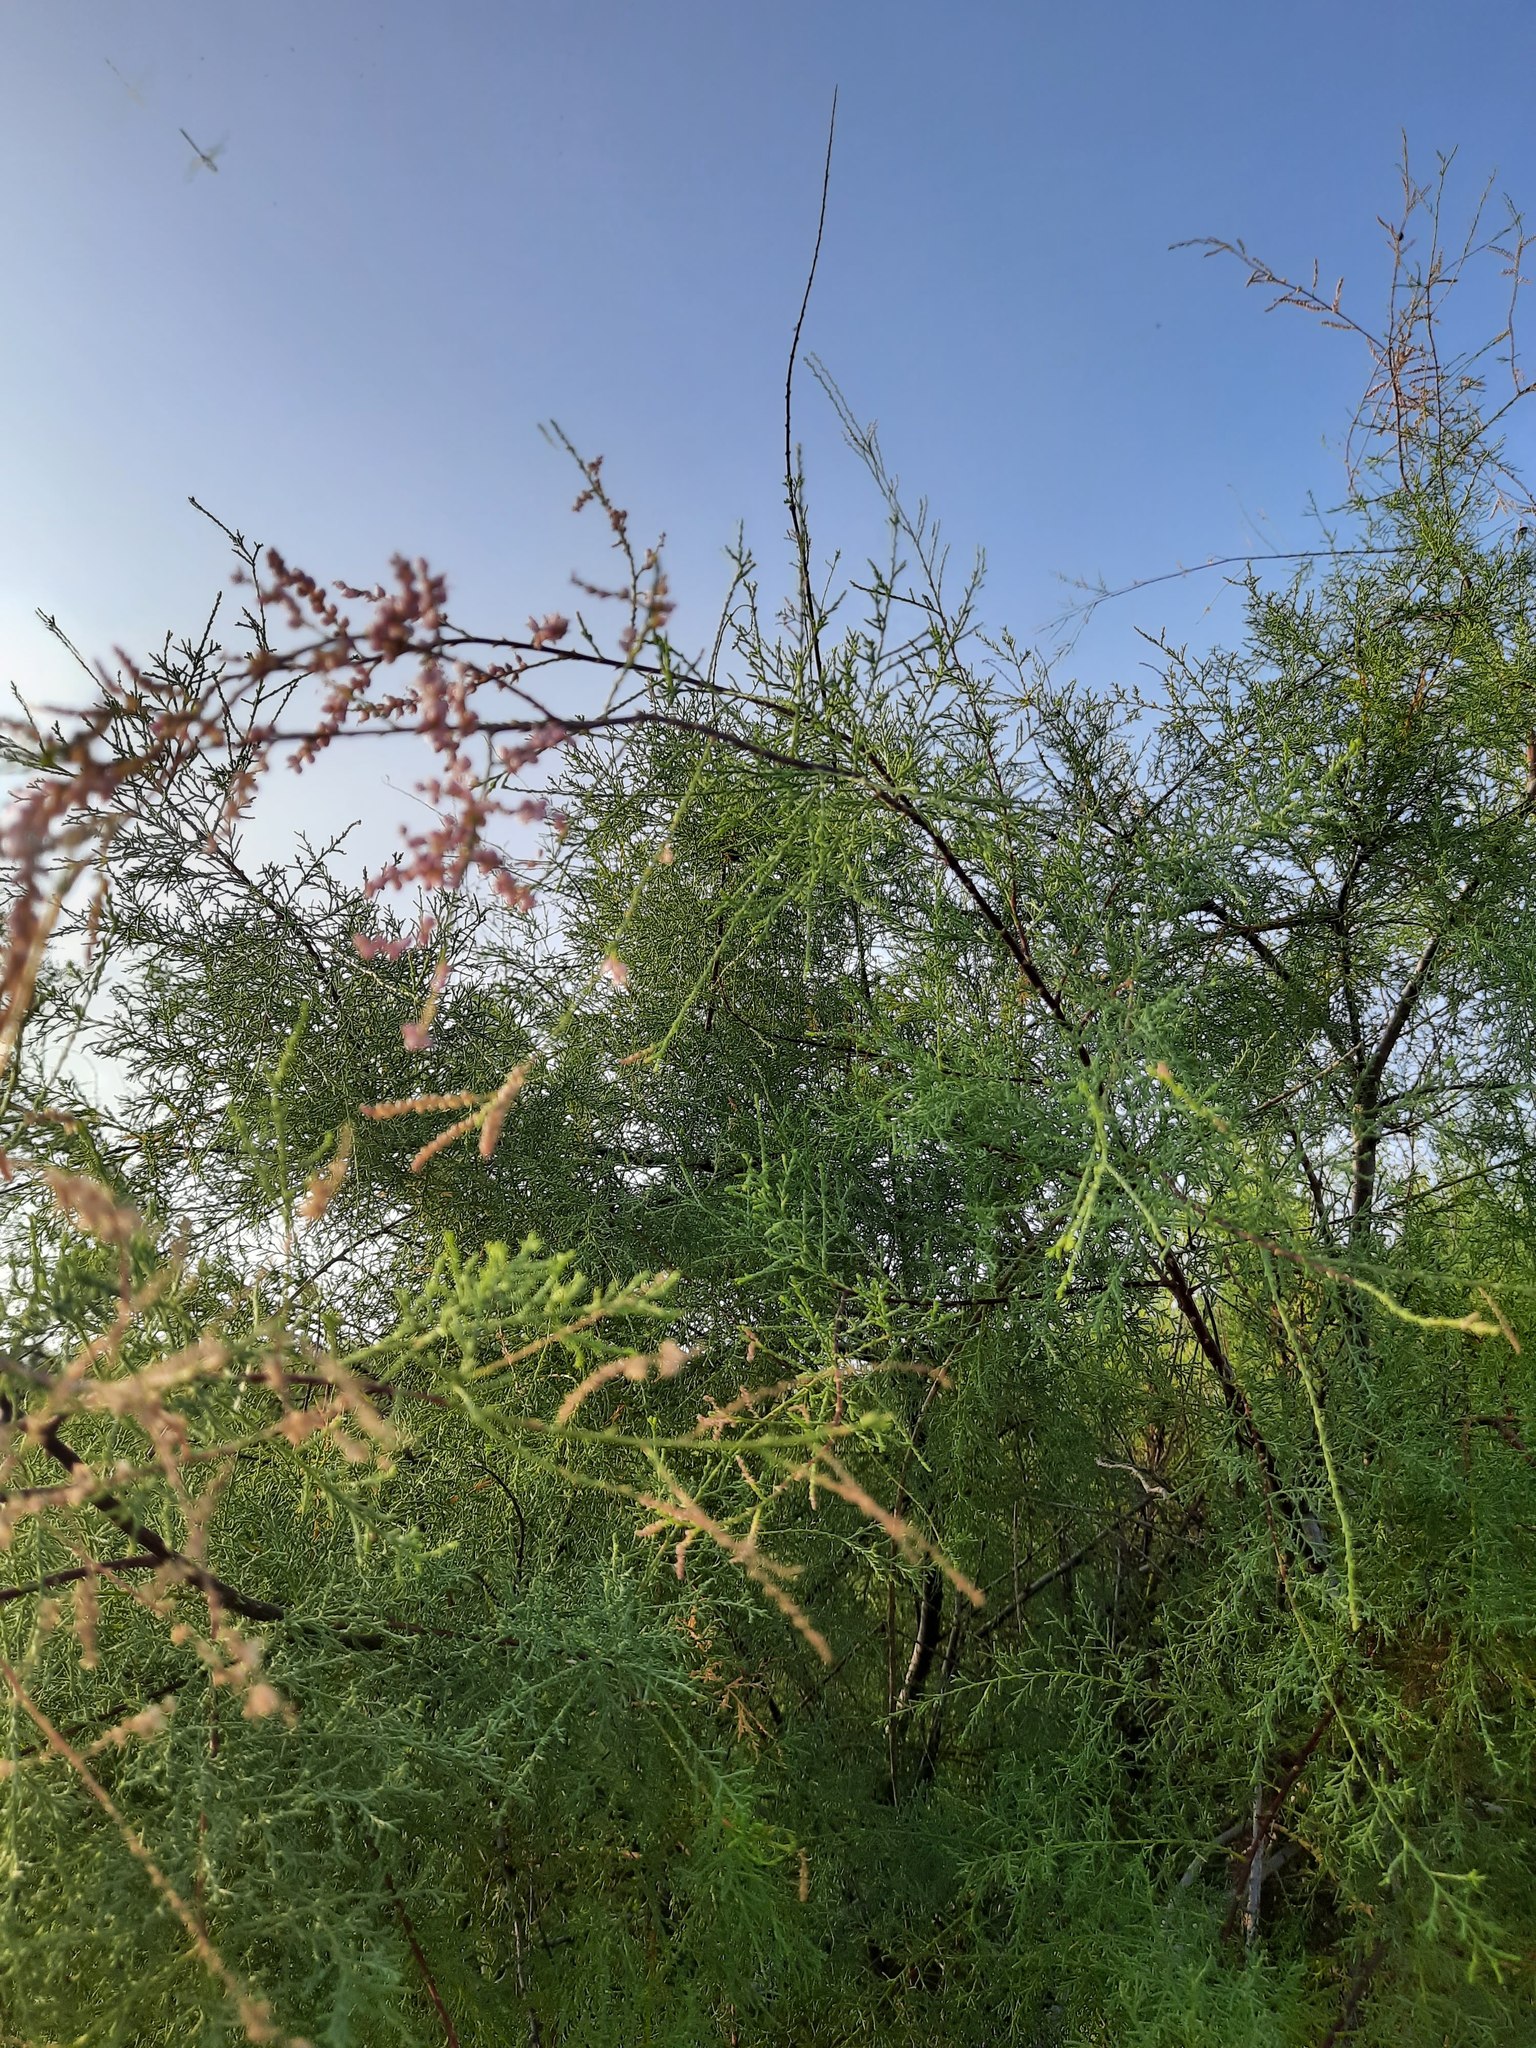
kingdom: Plantae
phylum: Tracheophyta
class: Magnoliopsida
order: Caryophyllales
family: Tamaricaceae
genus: Tamarix
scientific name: Tamarix ramosissima
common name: Pink tamarisk
